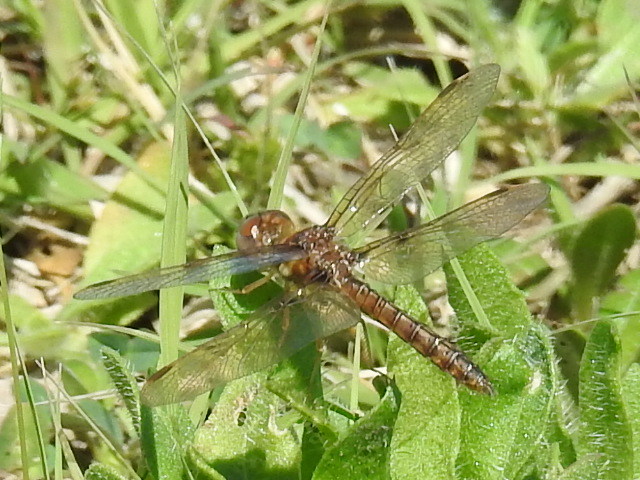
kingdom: Animalia
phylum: Arthropoda
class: Insecta
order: Odonata
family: Libellulidae
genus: Perithemis
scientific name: Perithemis tenera
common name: Eastern amberwing
